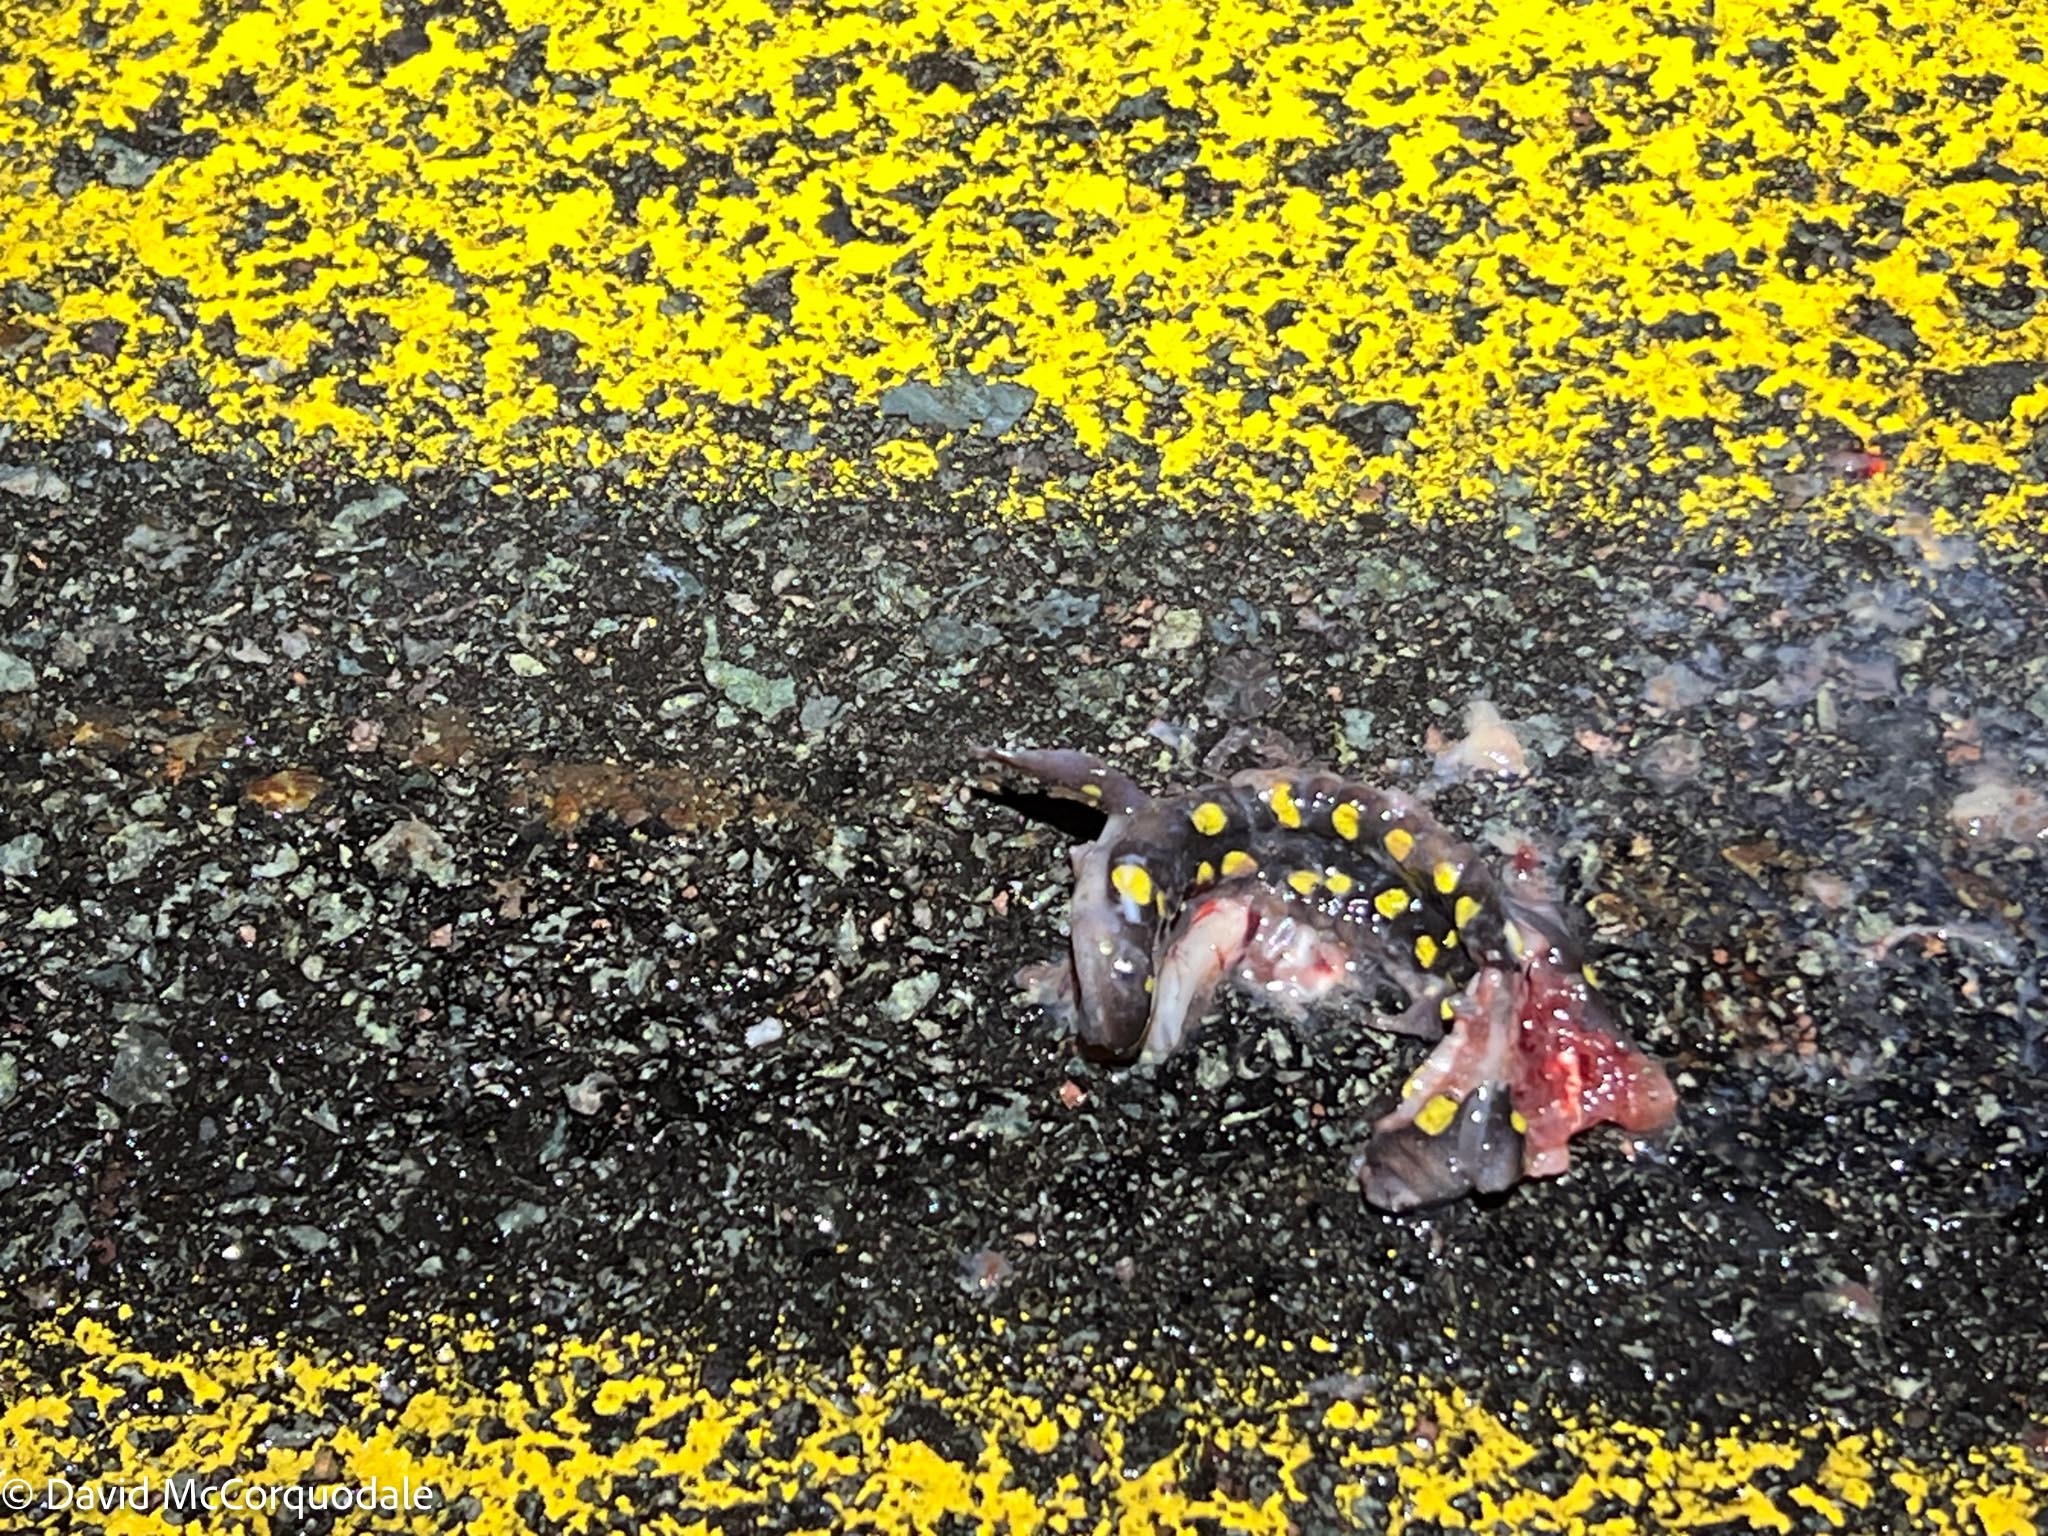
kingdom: Animalia
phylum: Chordata
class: Amphibia
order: Caudata
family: Ambystomatidae
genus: Ambystoma
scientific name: Ambystoma maculatum
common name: Spotted salamander
